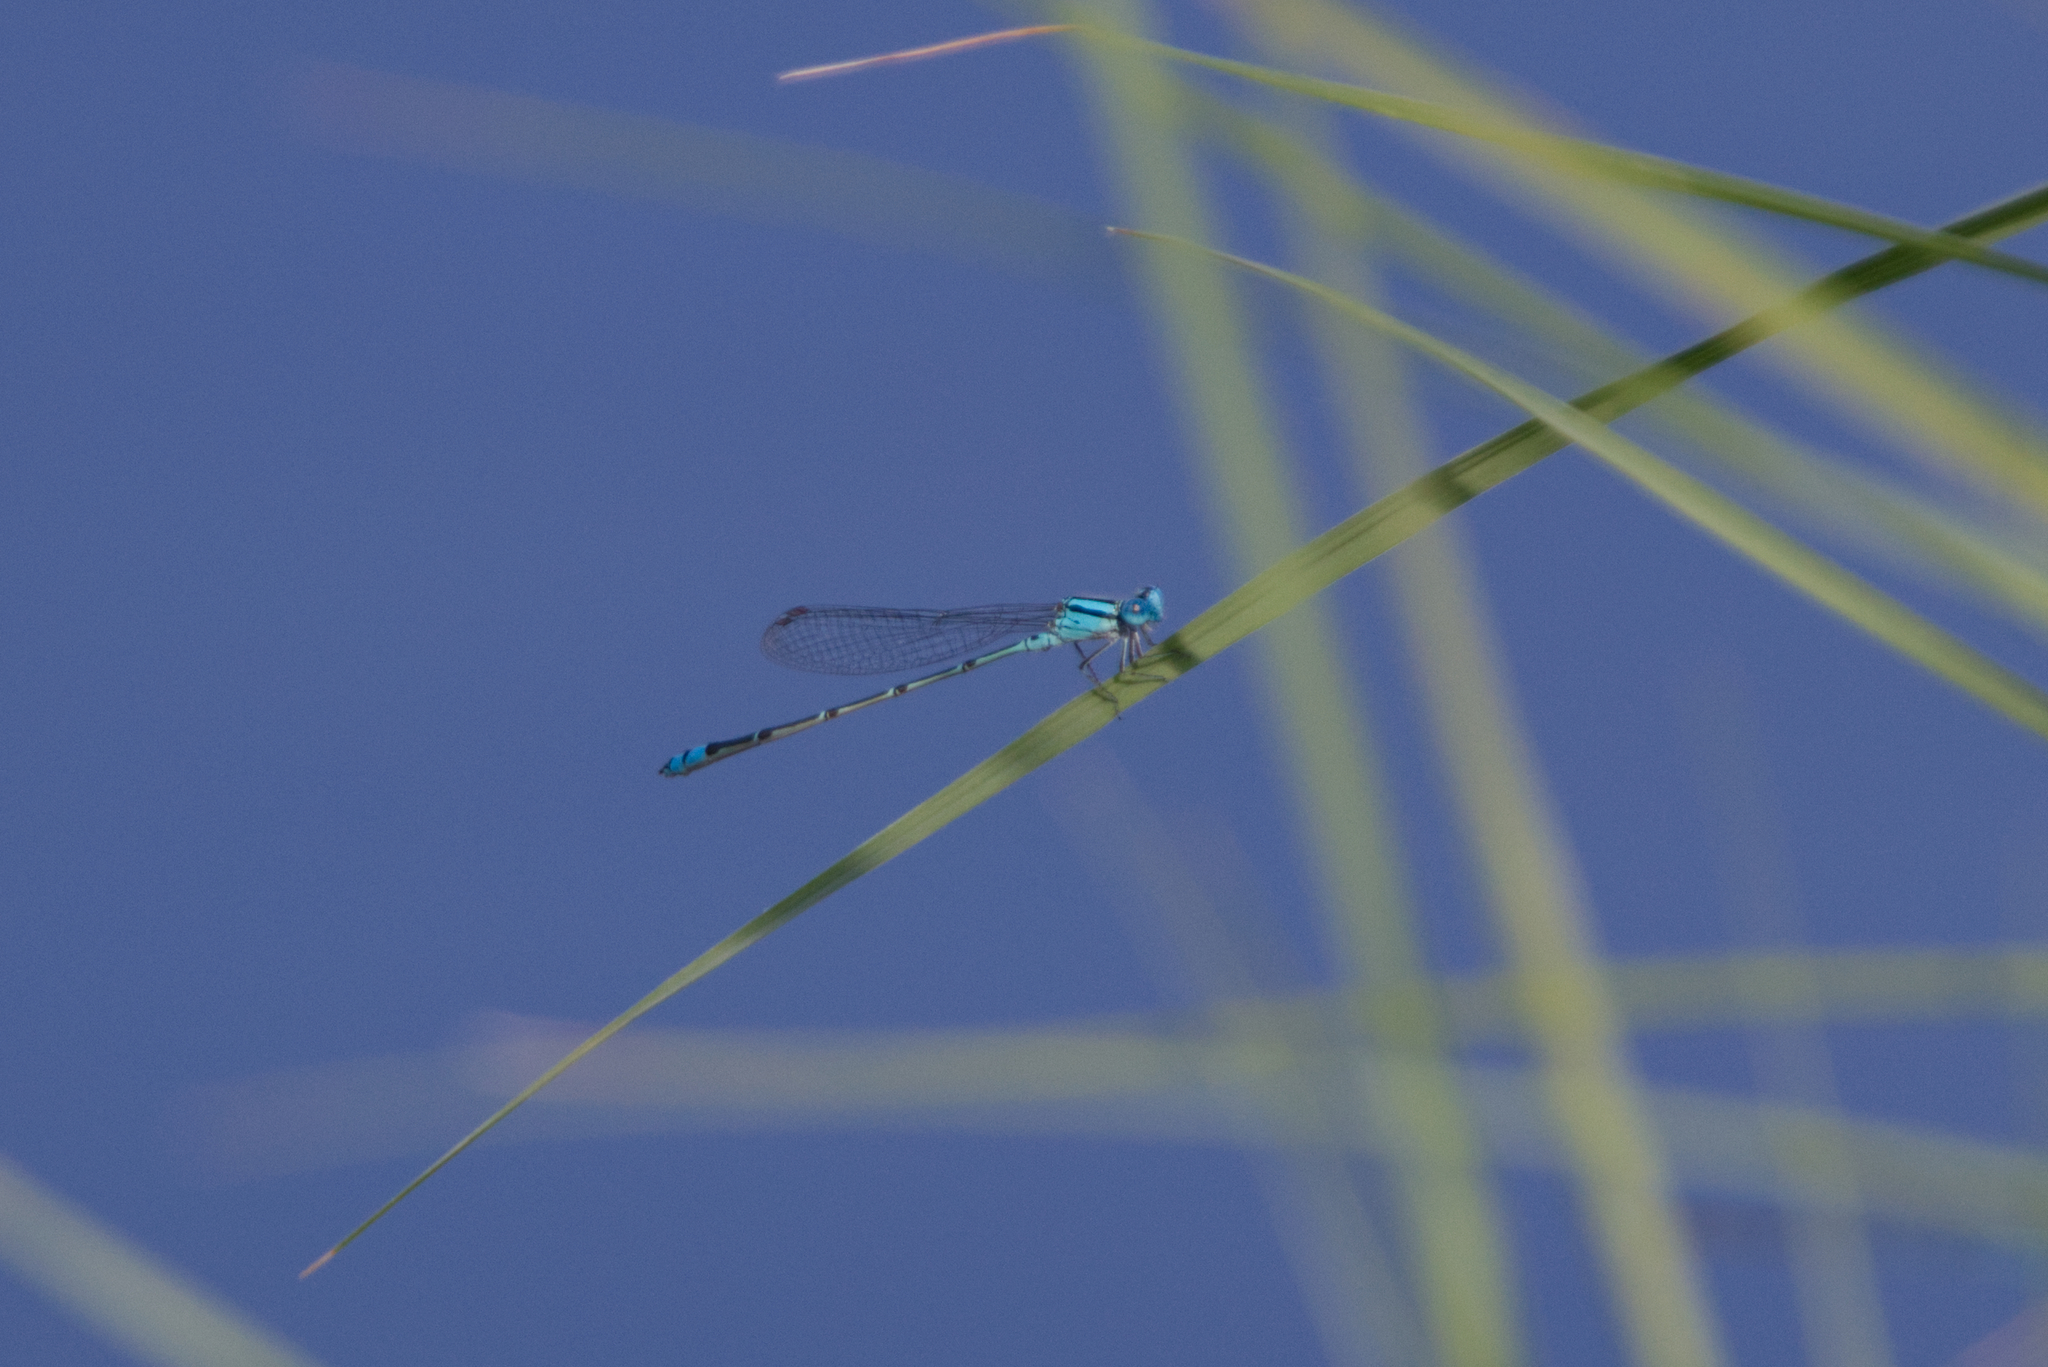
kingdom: Animalia
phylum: Arthropoda
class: Insecta
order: Odonata
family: Coenagrionidae
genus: Pseudagrion
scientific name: Pseudagrion microcephalum
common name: Blue riverdamsel
